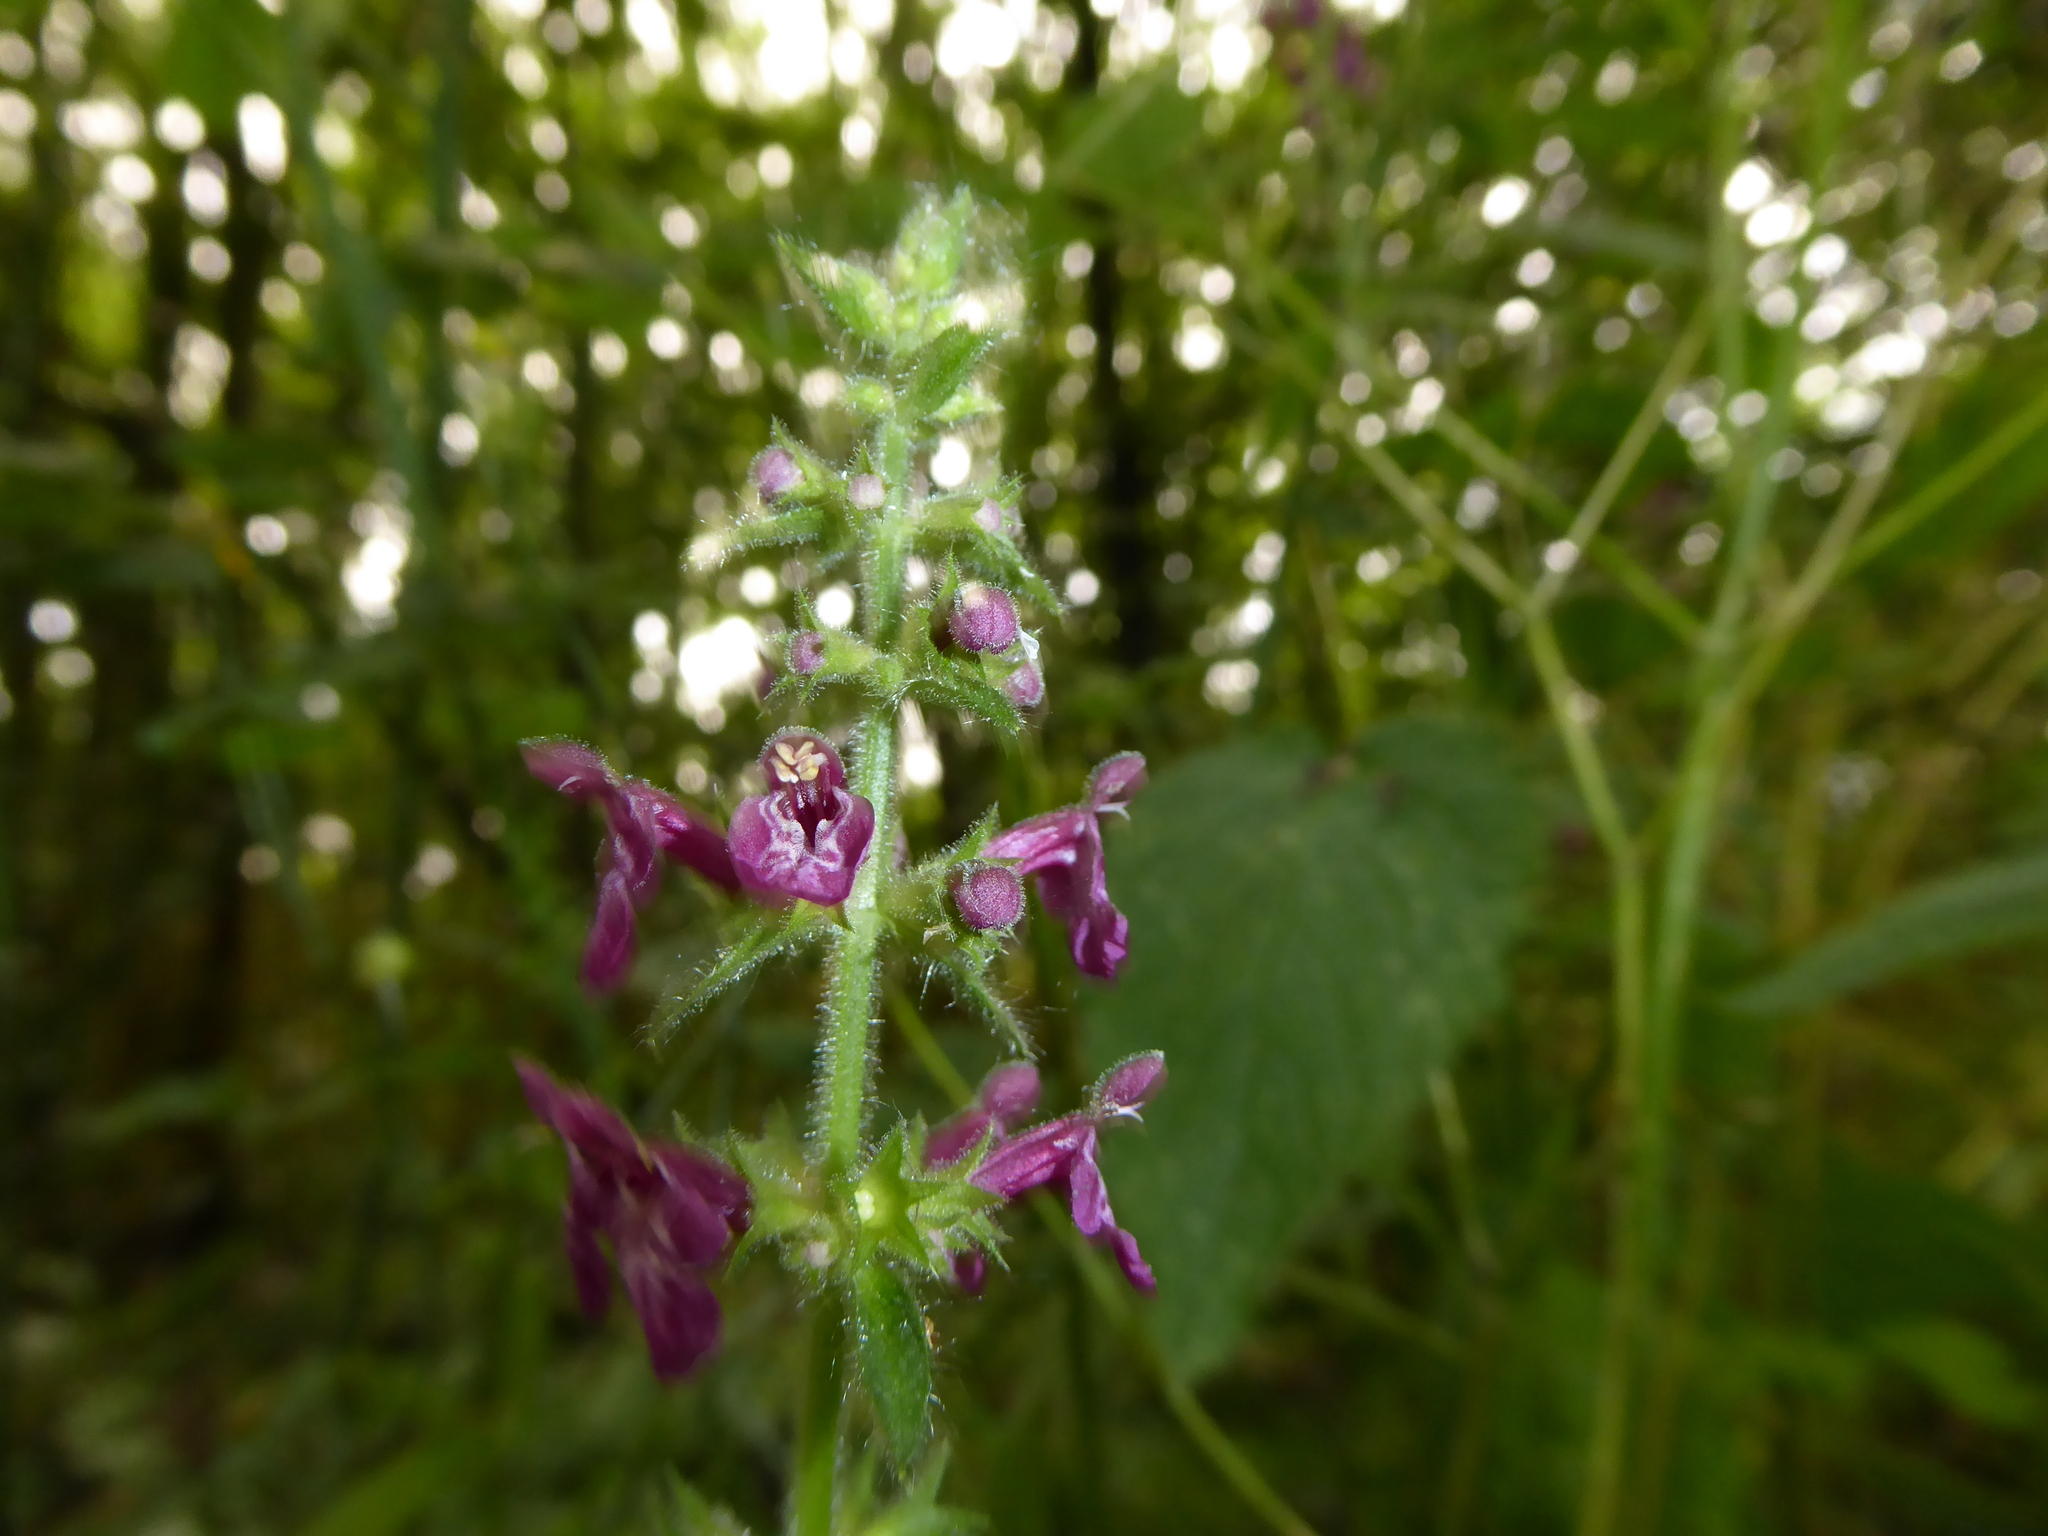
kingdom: Plantae
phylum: Tracheophyta
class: Magnoliopsida
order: Lamiales
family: Lamiaceae
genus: Stachys
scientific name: Stachys sylvatica
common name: Hedge woundwort
